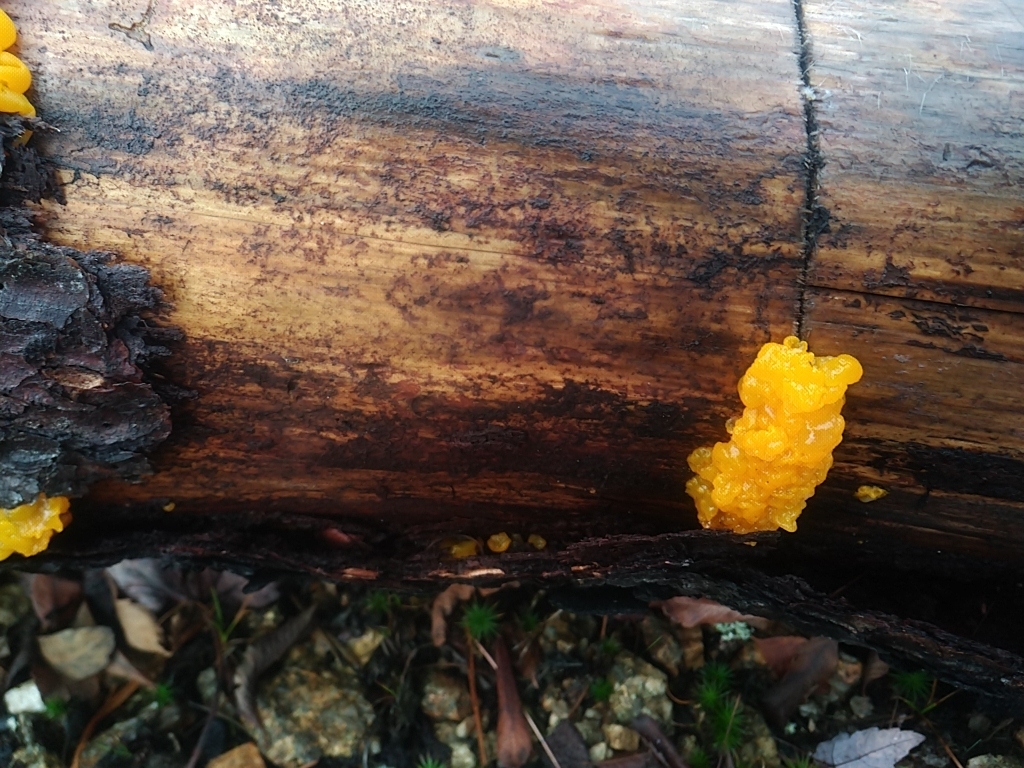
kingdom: Fungi
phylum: Basidiomycota
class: Dacrymycetes
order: Dacrymycetales
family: Dacrymycetaceae
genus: Dacrymyces
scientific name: Dacrymyces chrysospermus
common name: Orange jelly spot
